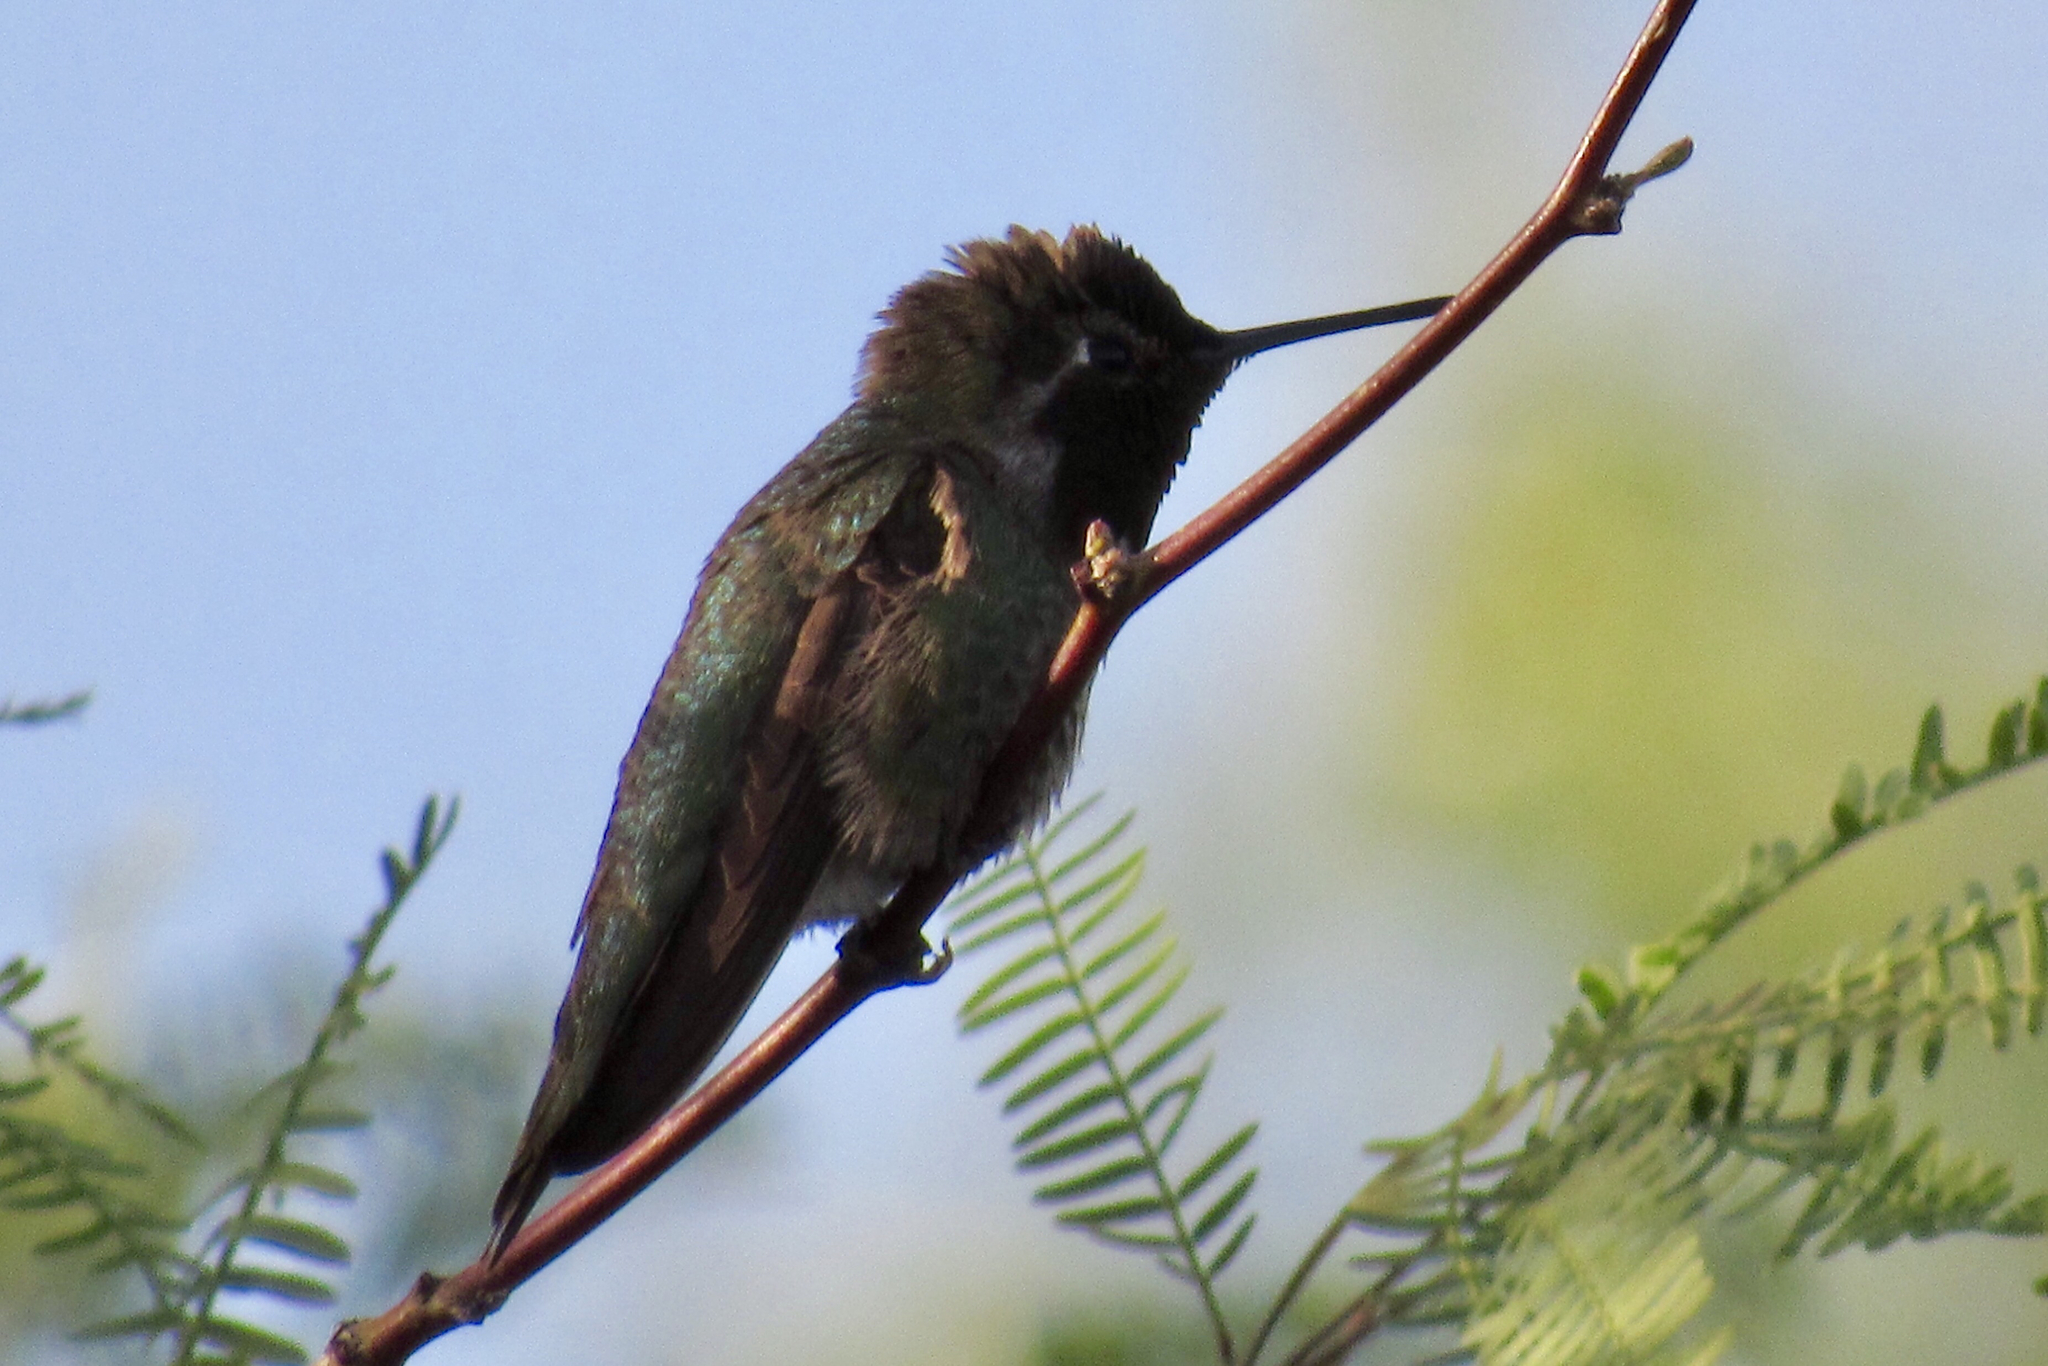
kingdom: Animalia
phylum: Chordata
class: Aves
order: Apodiformes
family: Trochilidae
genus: Calypte
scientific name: Calypte anna
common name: Anna's hummingbird
